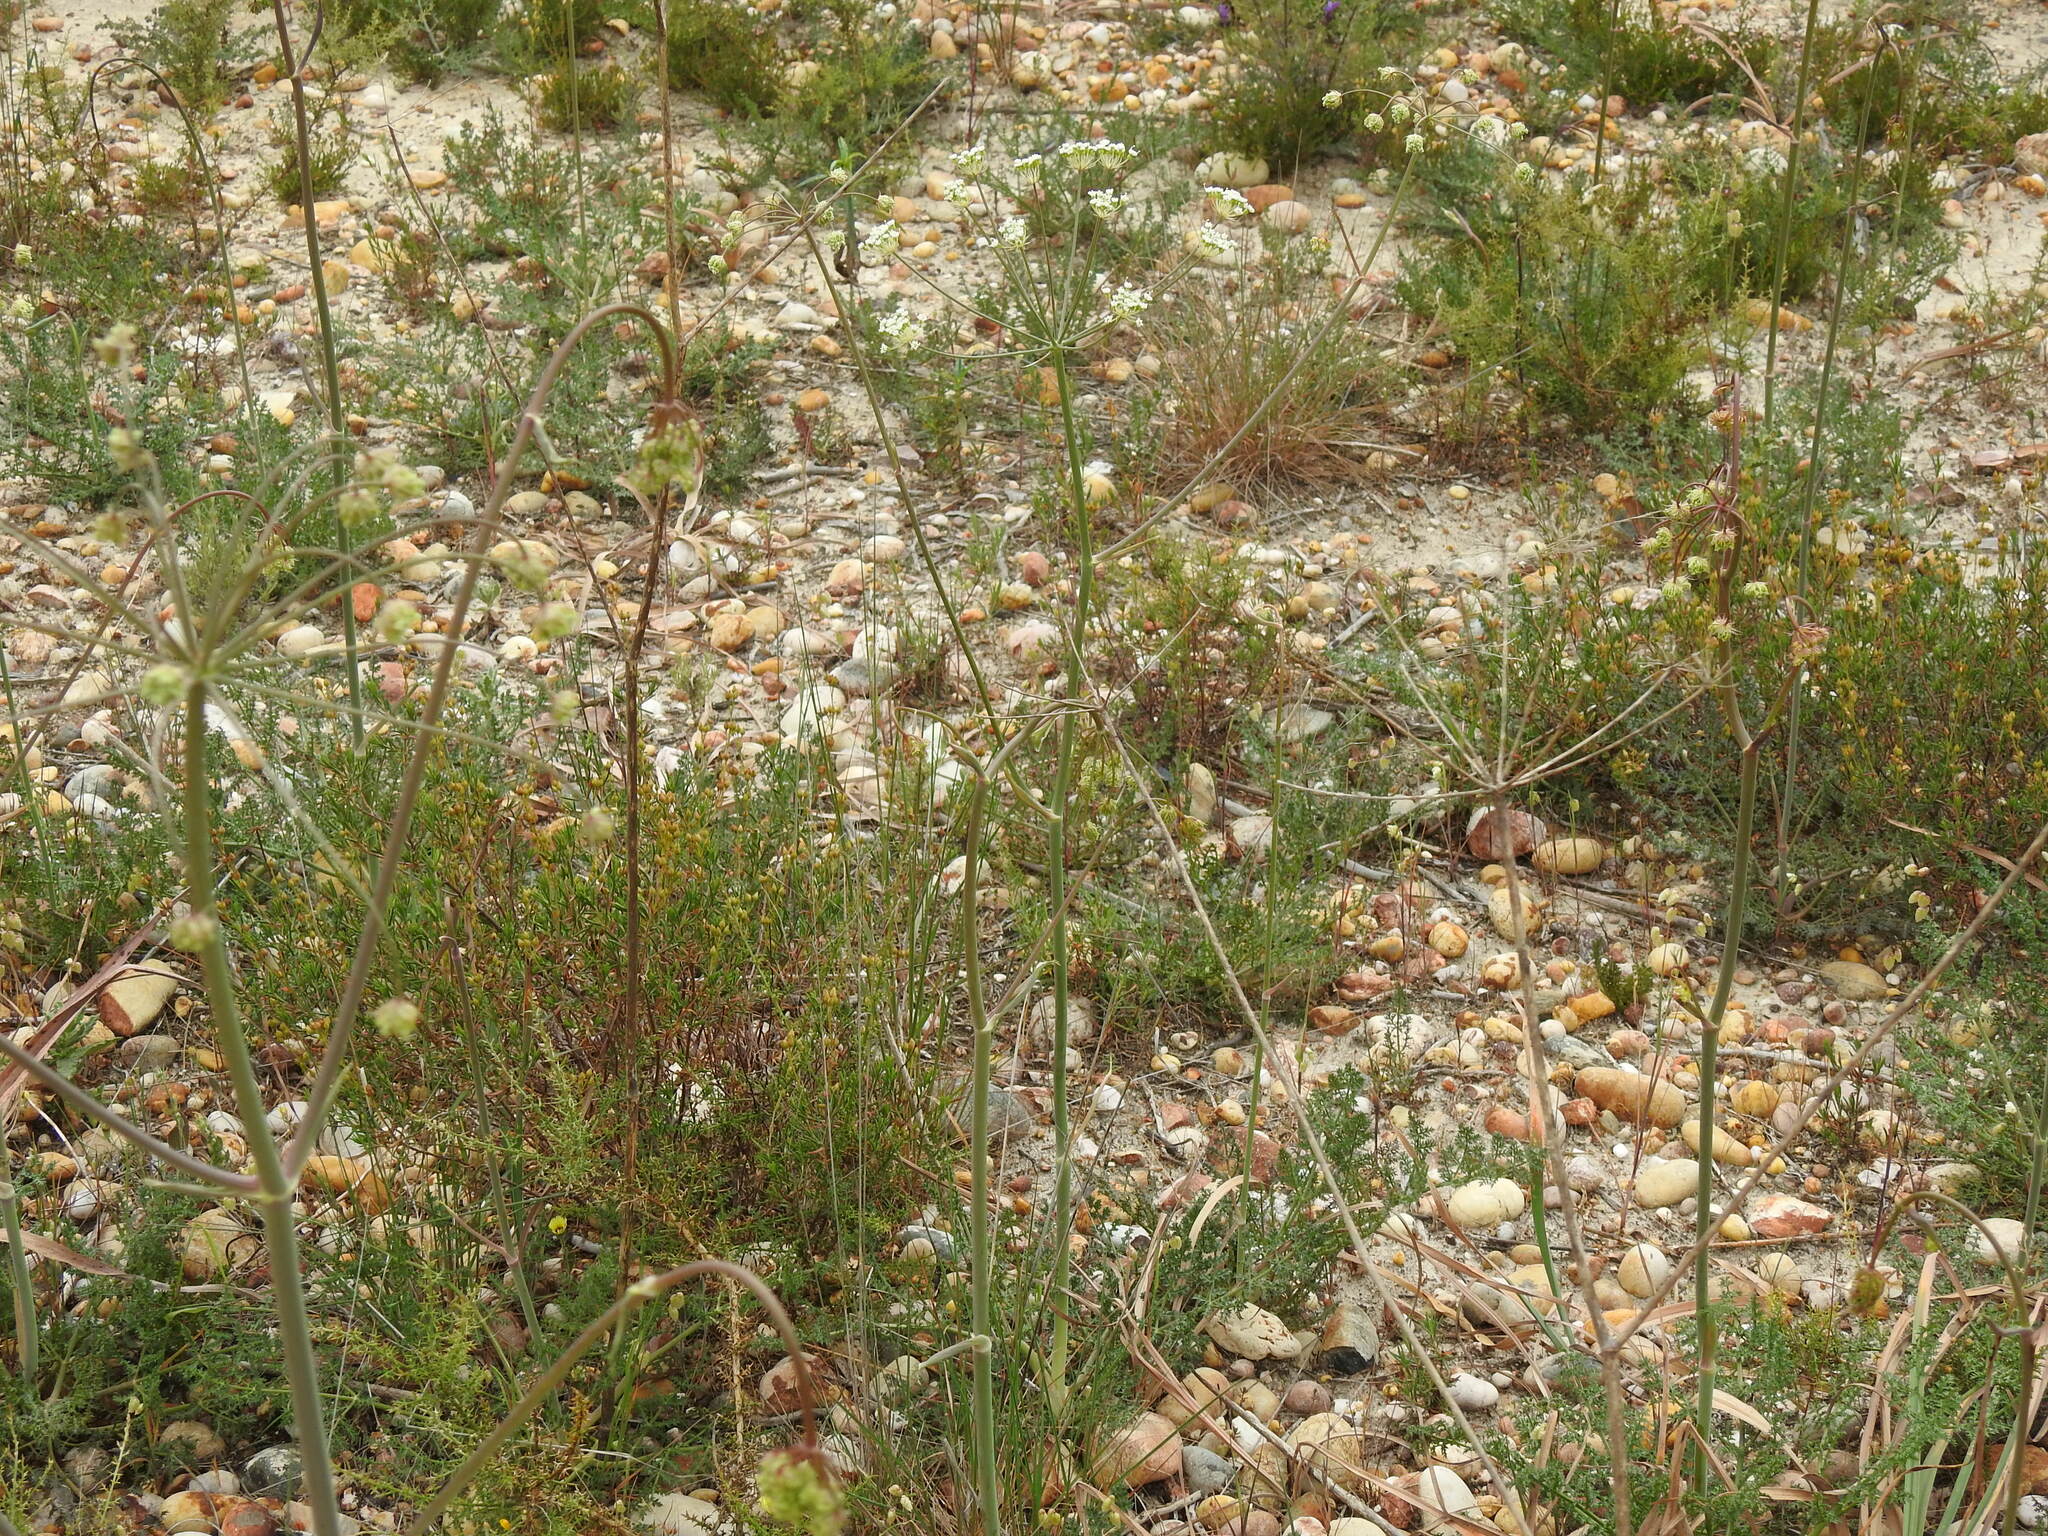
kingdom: Plantae
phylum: Tracheophyta
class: Magnoliopsida
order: Apiales
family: Apiaceae
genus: Thapsia
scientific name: Thapsia gummifera
